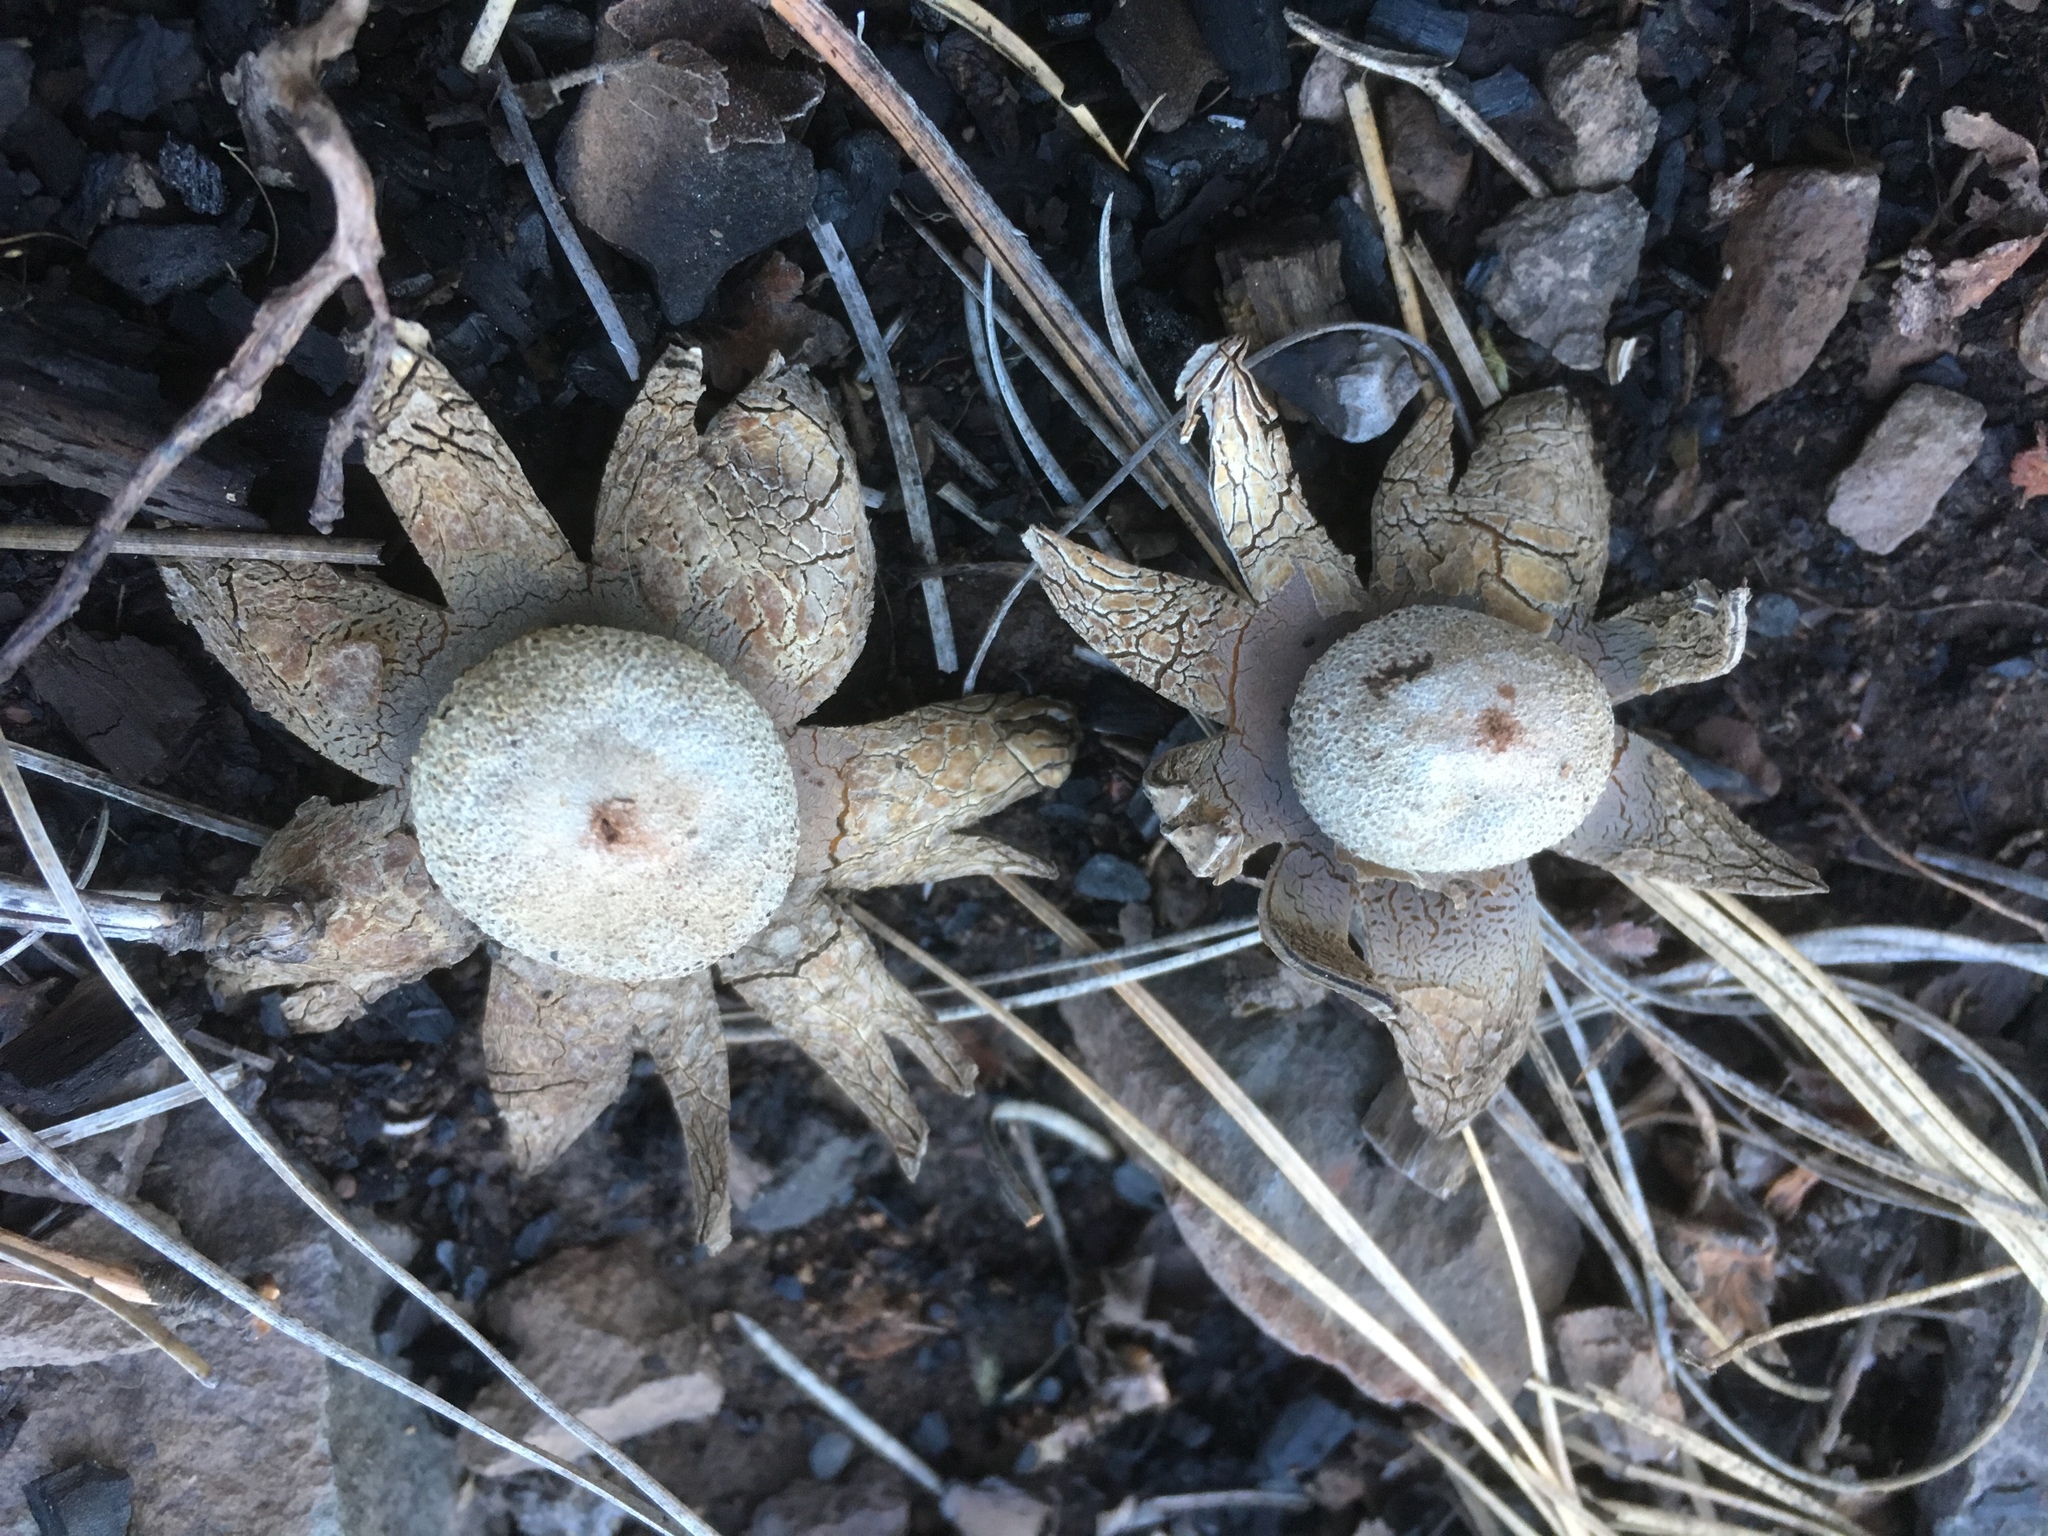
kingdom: Fungi
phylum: Basidiomycota
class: Agaricomycetes
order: Boletales
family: Diplocystidiaceae
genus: Astraeus
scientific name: Astraeus hygrometricus
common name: Barometer earthstar
